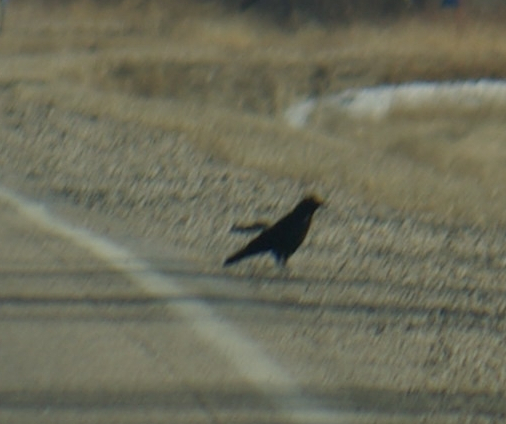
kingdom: Animalia
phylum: Chordata
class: Aves
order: Passeriformes
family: Corvidae
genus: Corvus
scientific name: Corvus brachyrhynchos
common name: American crow
